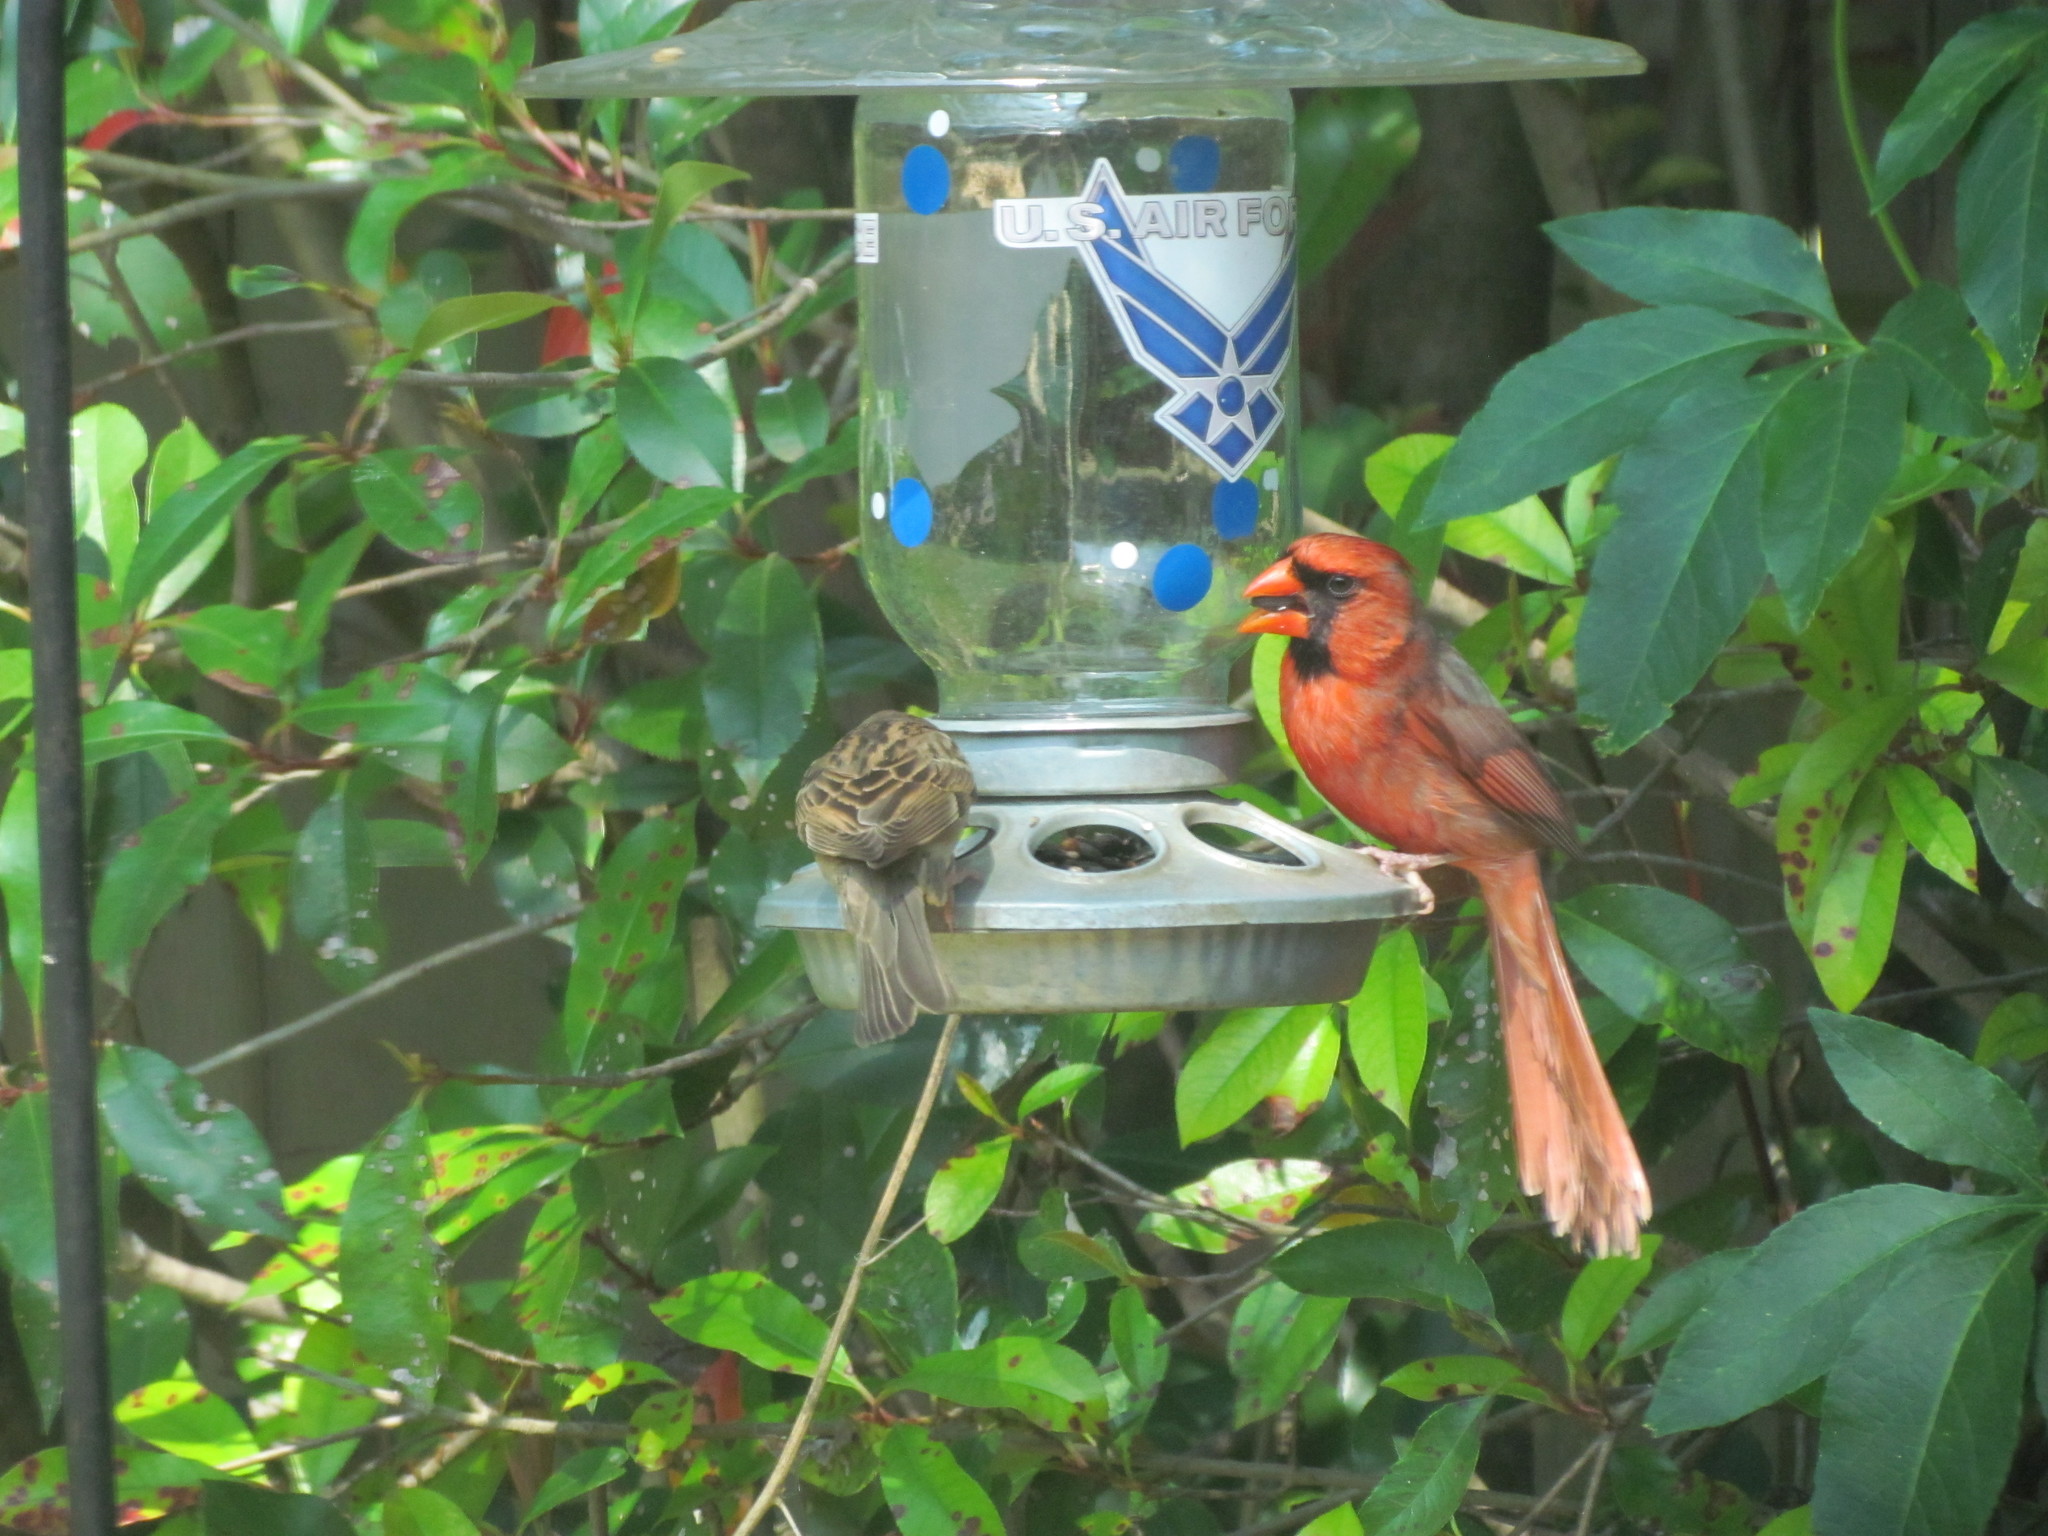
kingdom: Animalia
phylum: Chordata
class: Aves
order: Passeriformes
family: Cardinalidae
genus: Cardinalis
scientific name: Cardinalis cardinalis
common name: Northern cardinal
